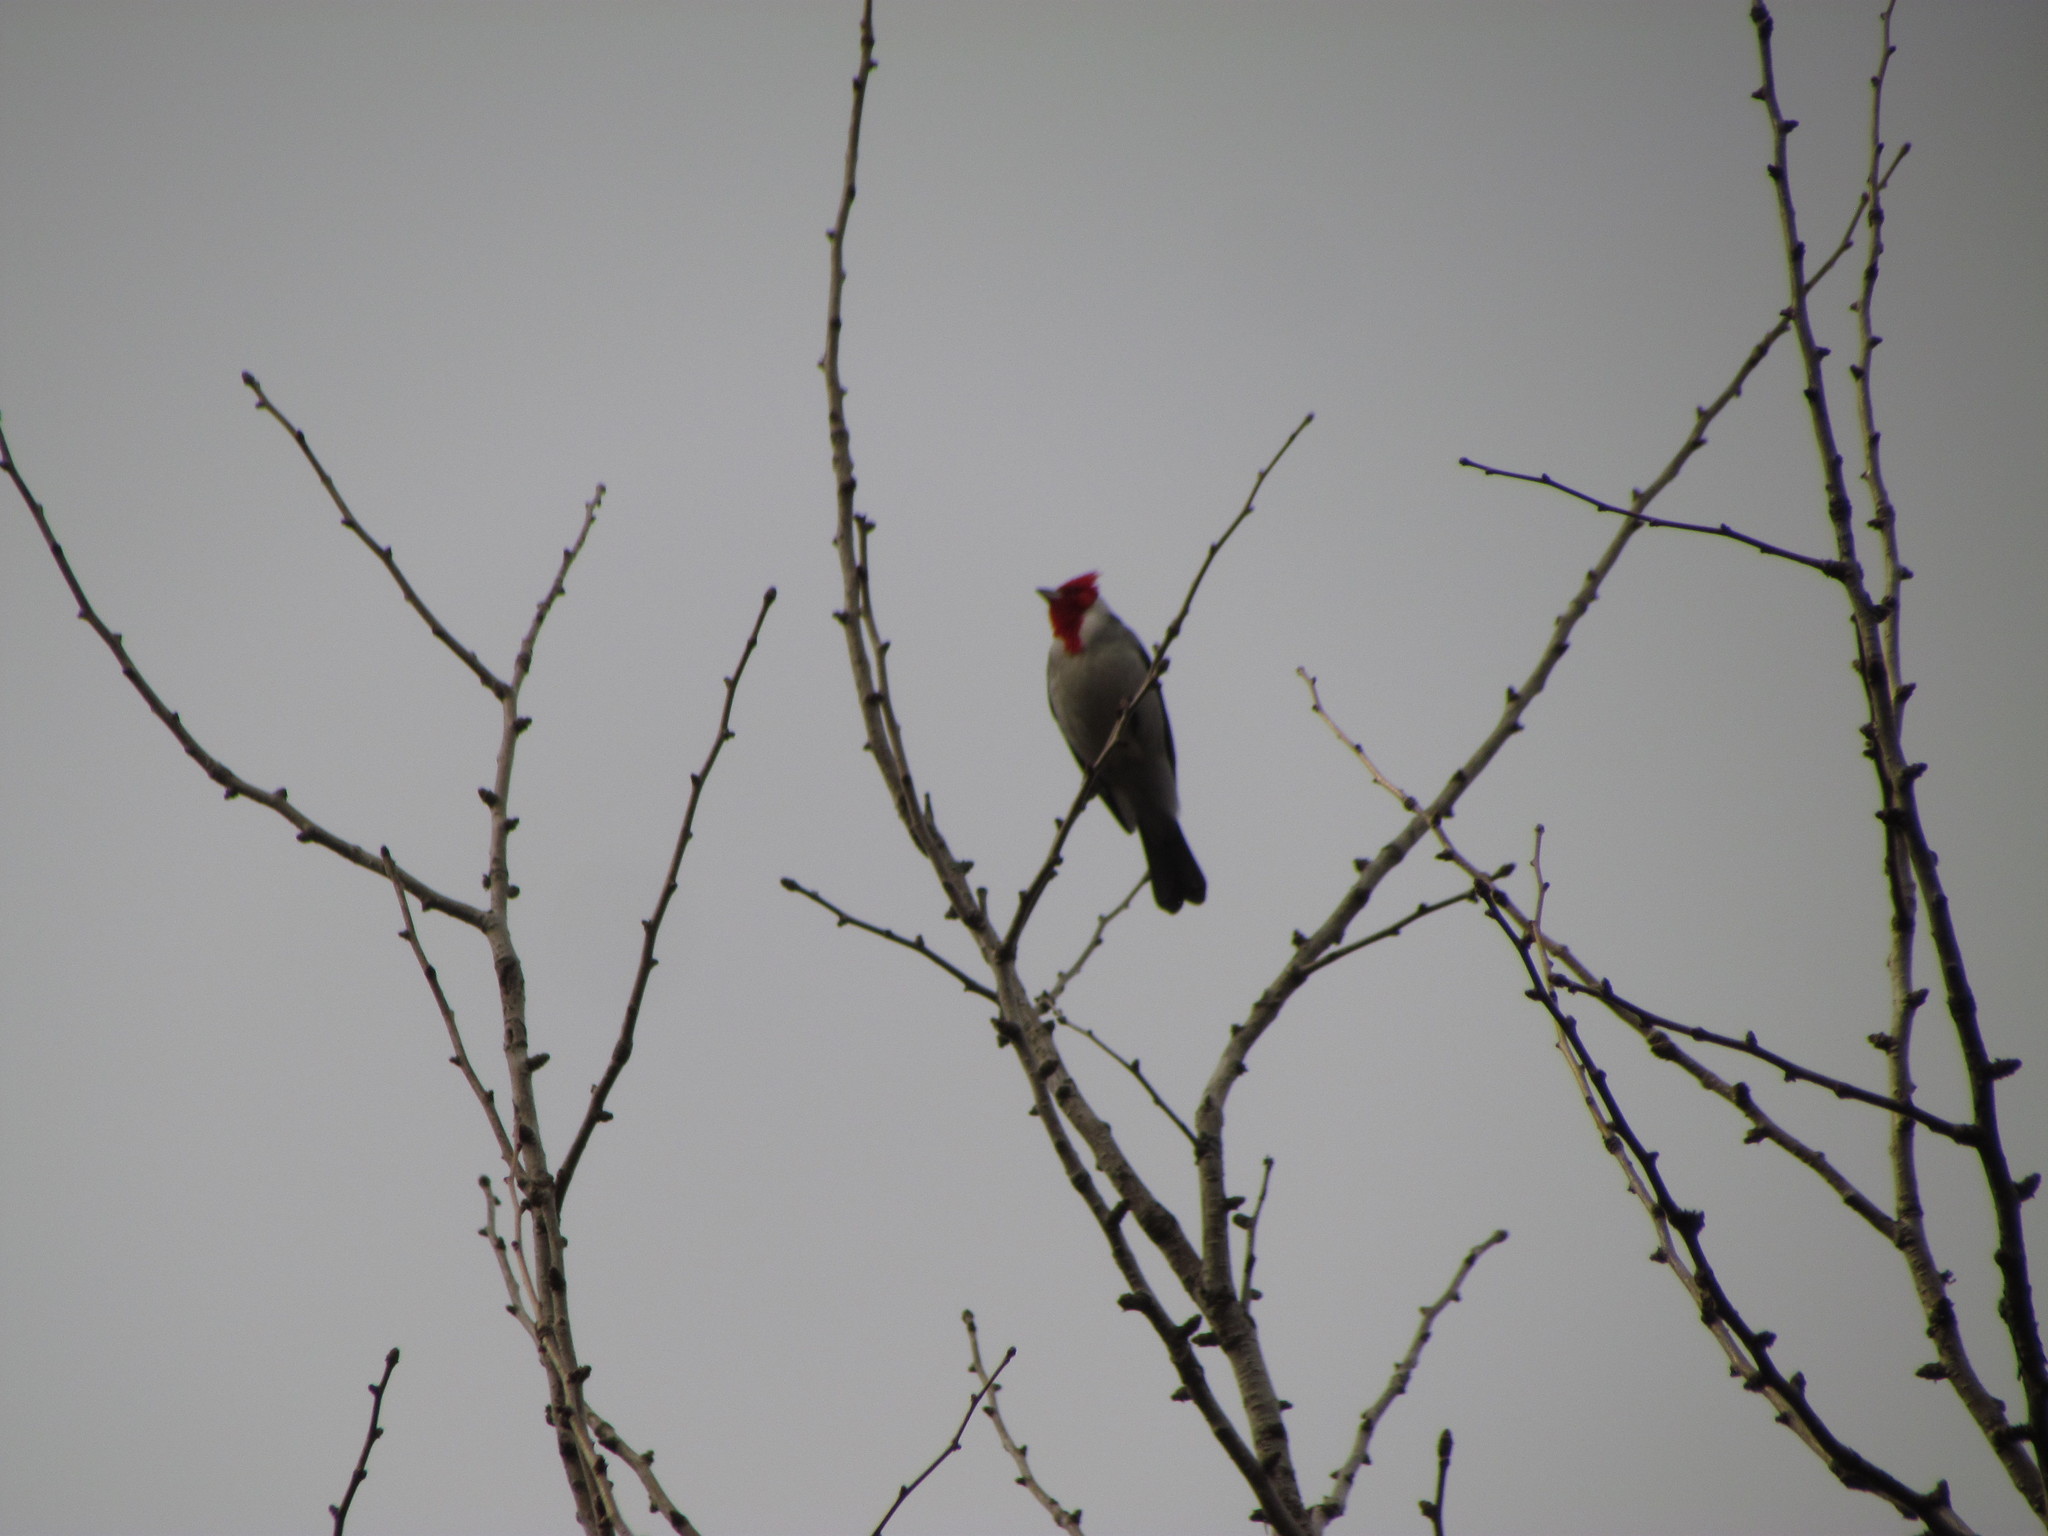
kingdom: Animalia
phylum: Chordata
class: Aves
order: Passeriformes
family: Thraupidae
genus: Paroaria
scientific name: Paroaria coronata
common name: Red-crested cardinal
